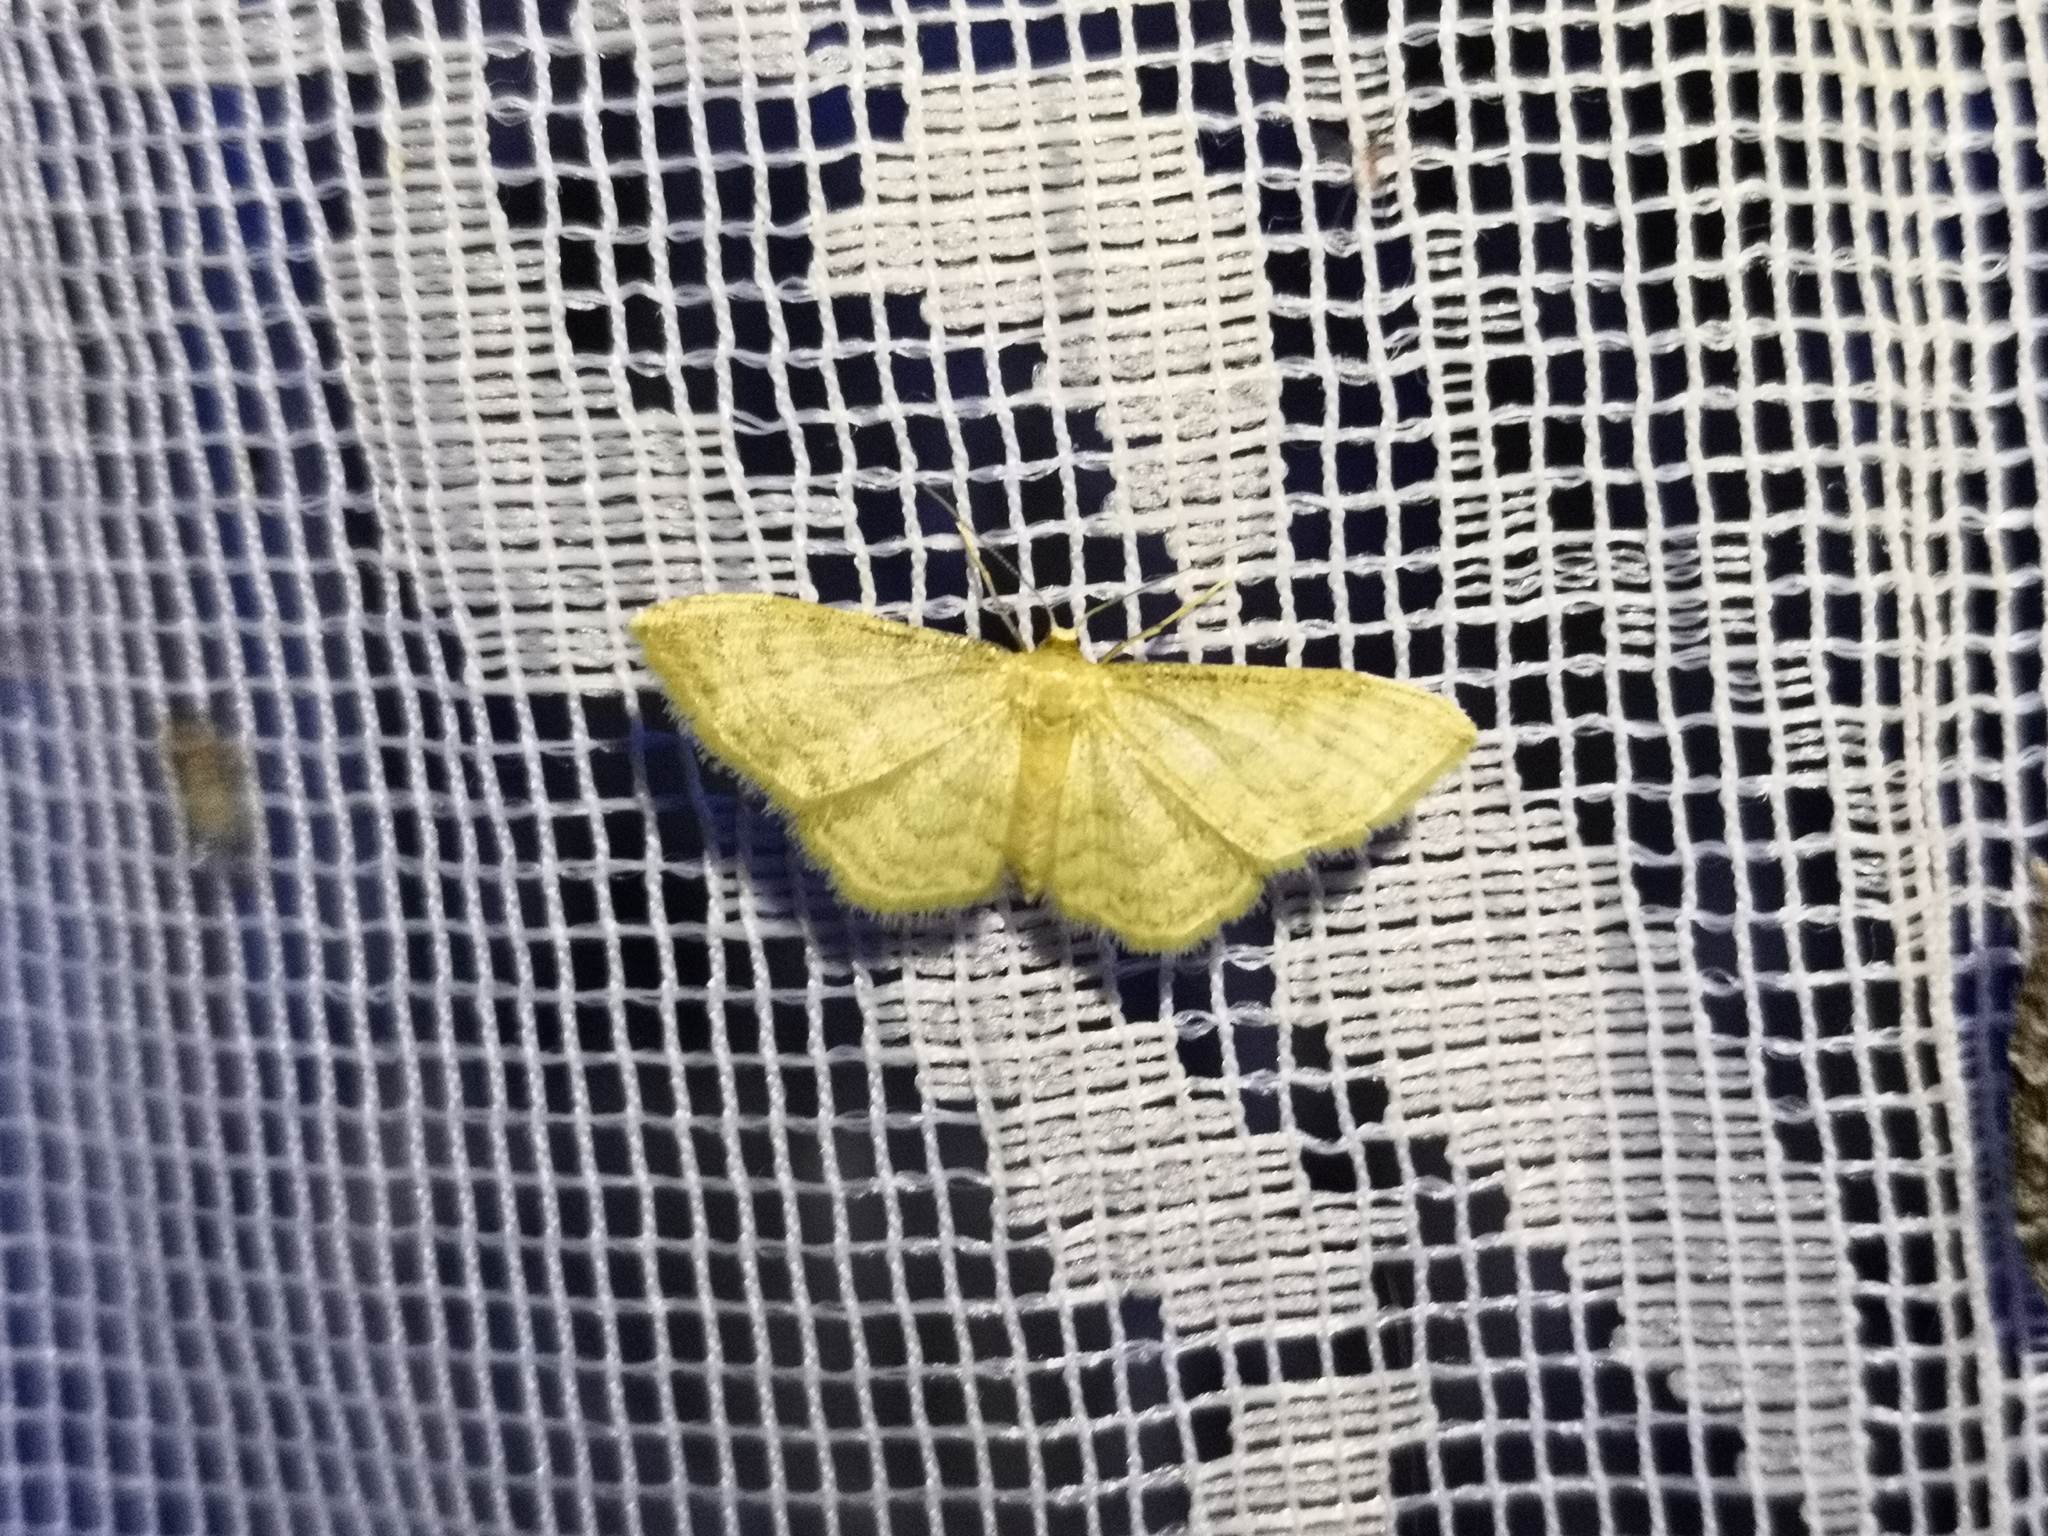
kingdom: Animalia
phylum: Arthropoda
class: Insecta
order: Lepidoptera
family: Geometridae
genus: Idaea
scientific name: Idaea dilutaria
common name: Silky wave
